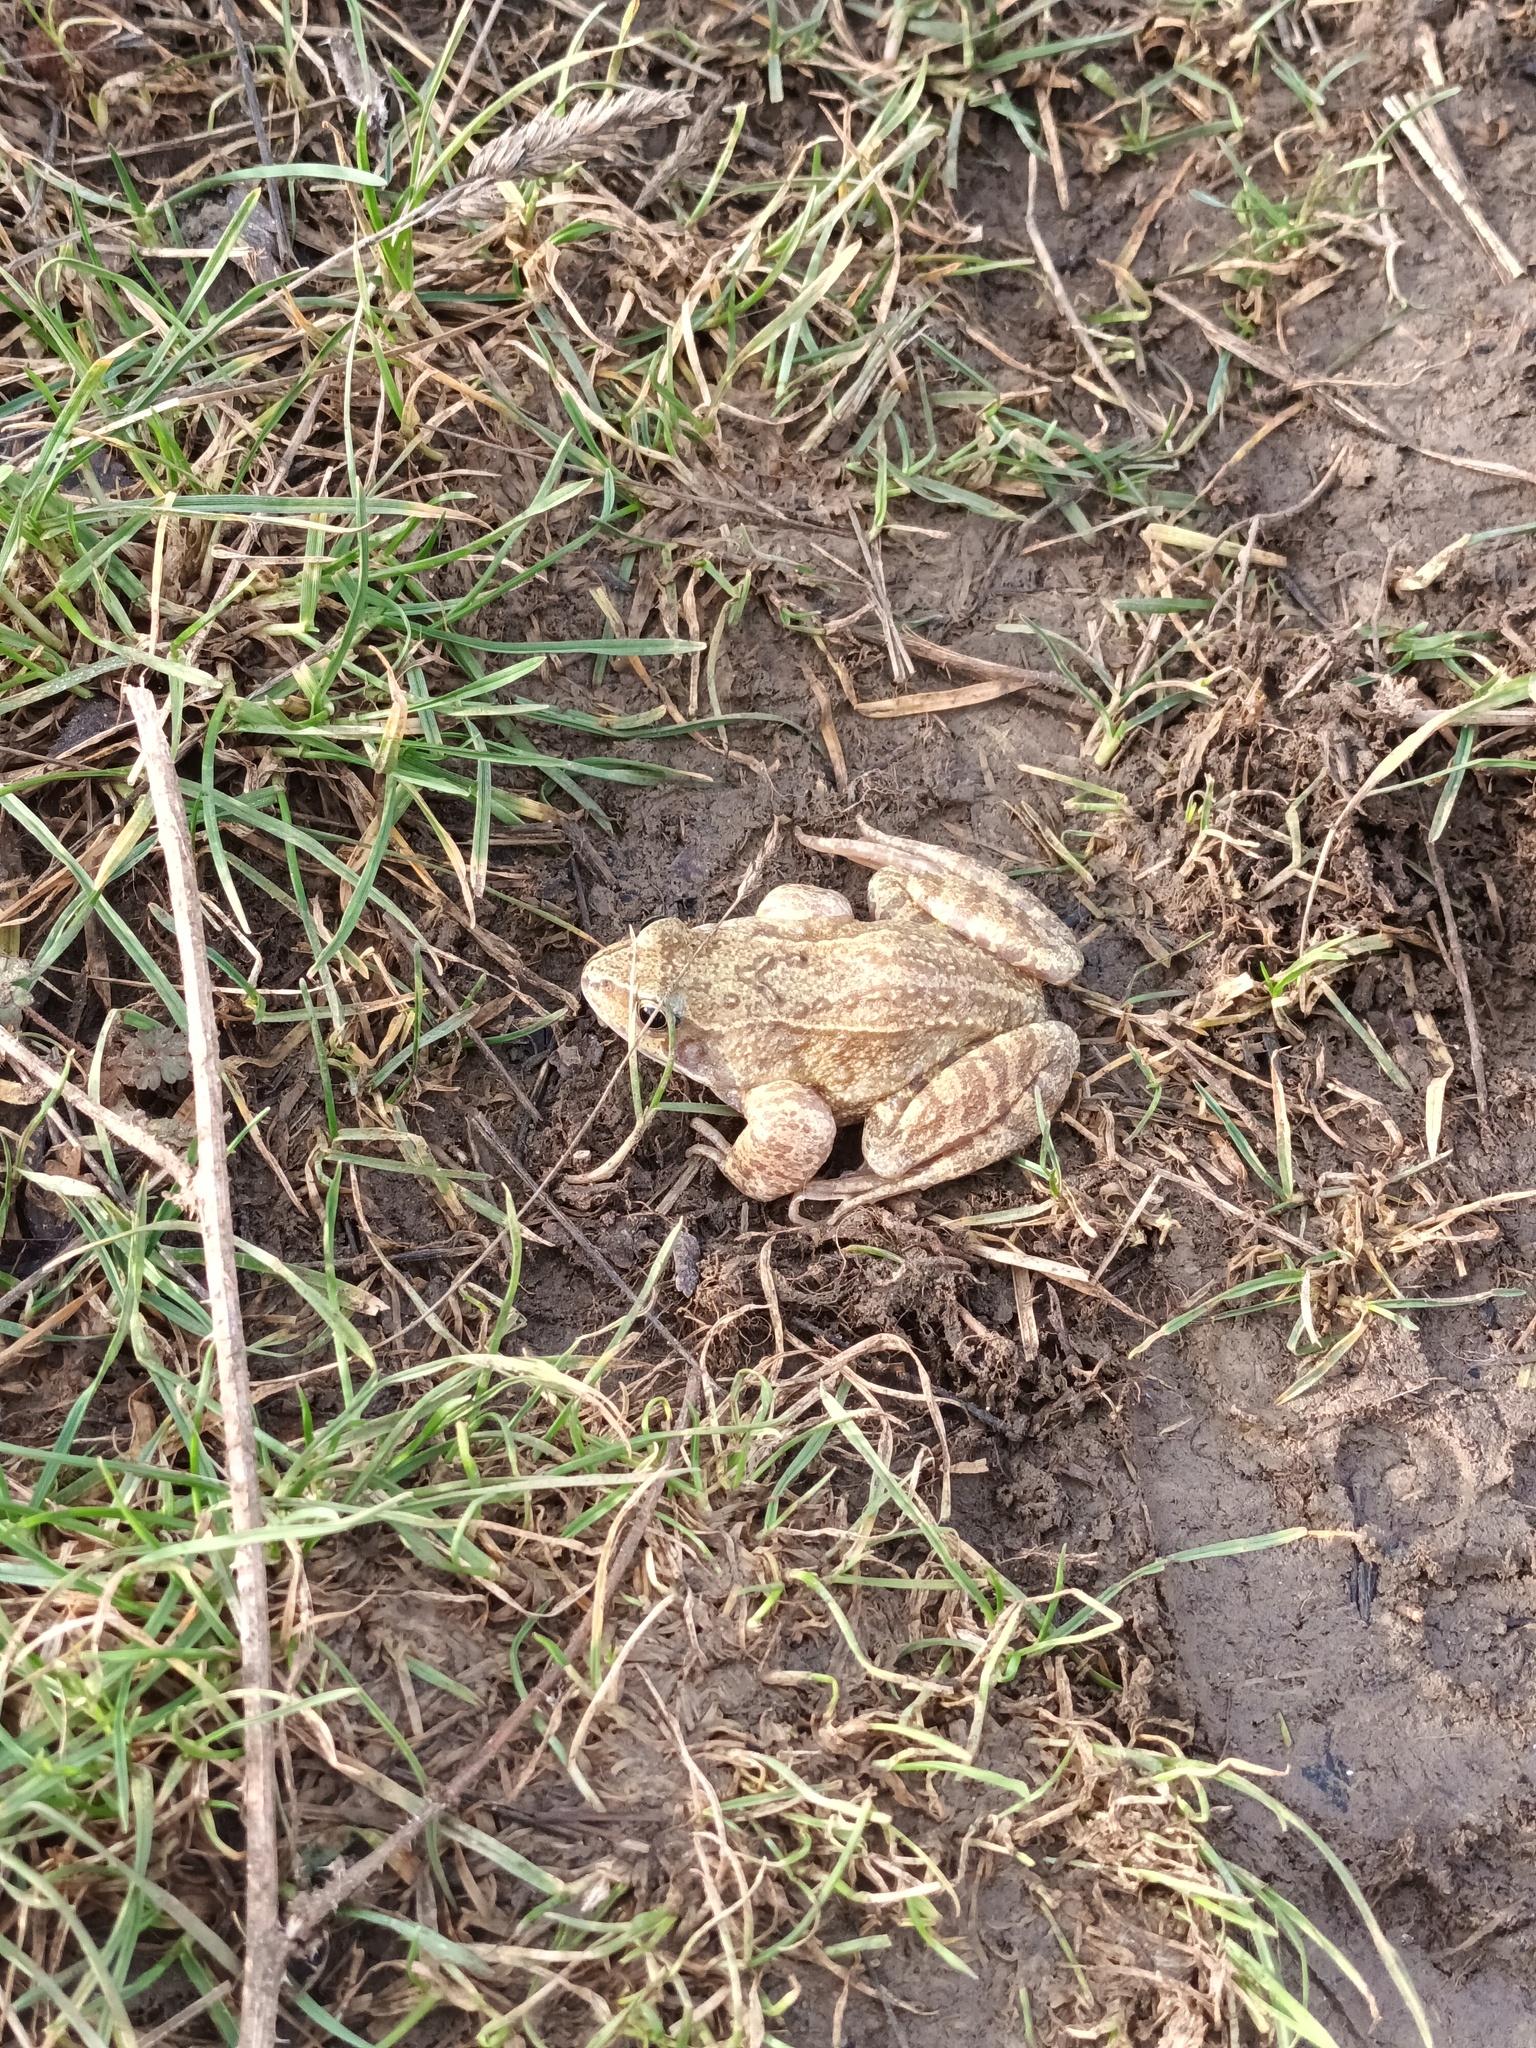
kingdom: Animalia
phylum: Chordata
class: Amphibia
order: Anura
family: Ranidae
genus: Rana
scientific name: Rana temporaria
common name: Common frog
